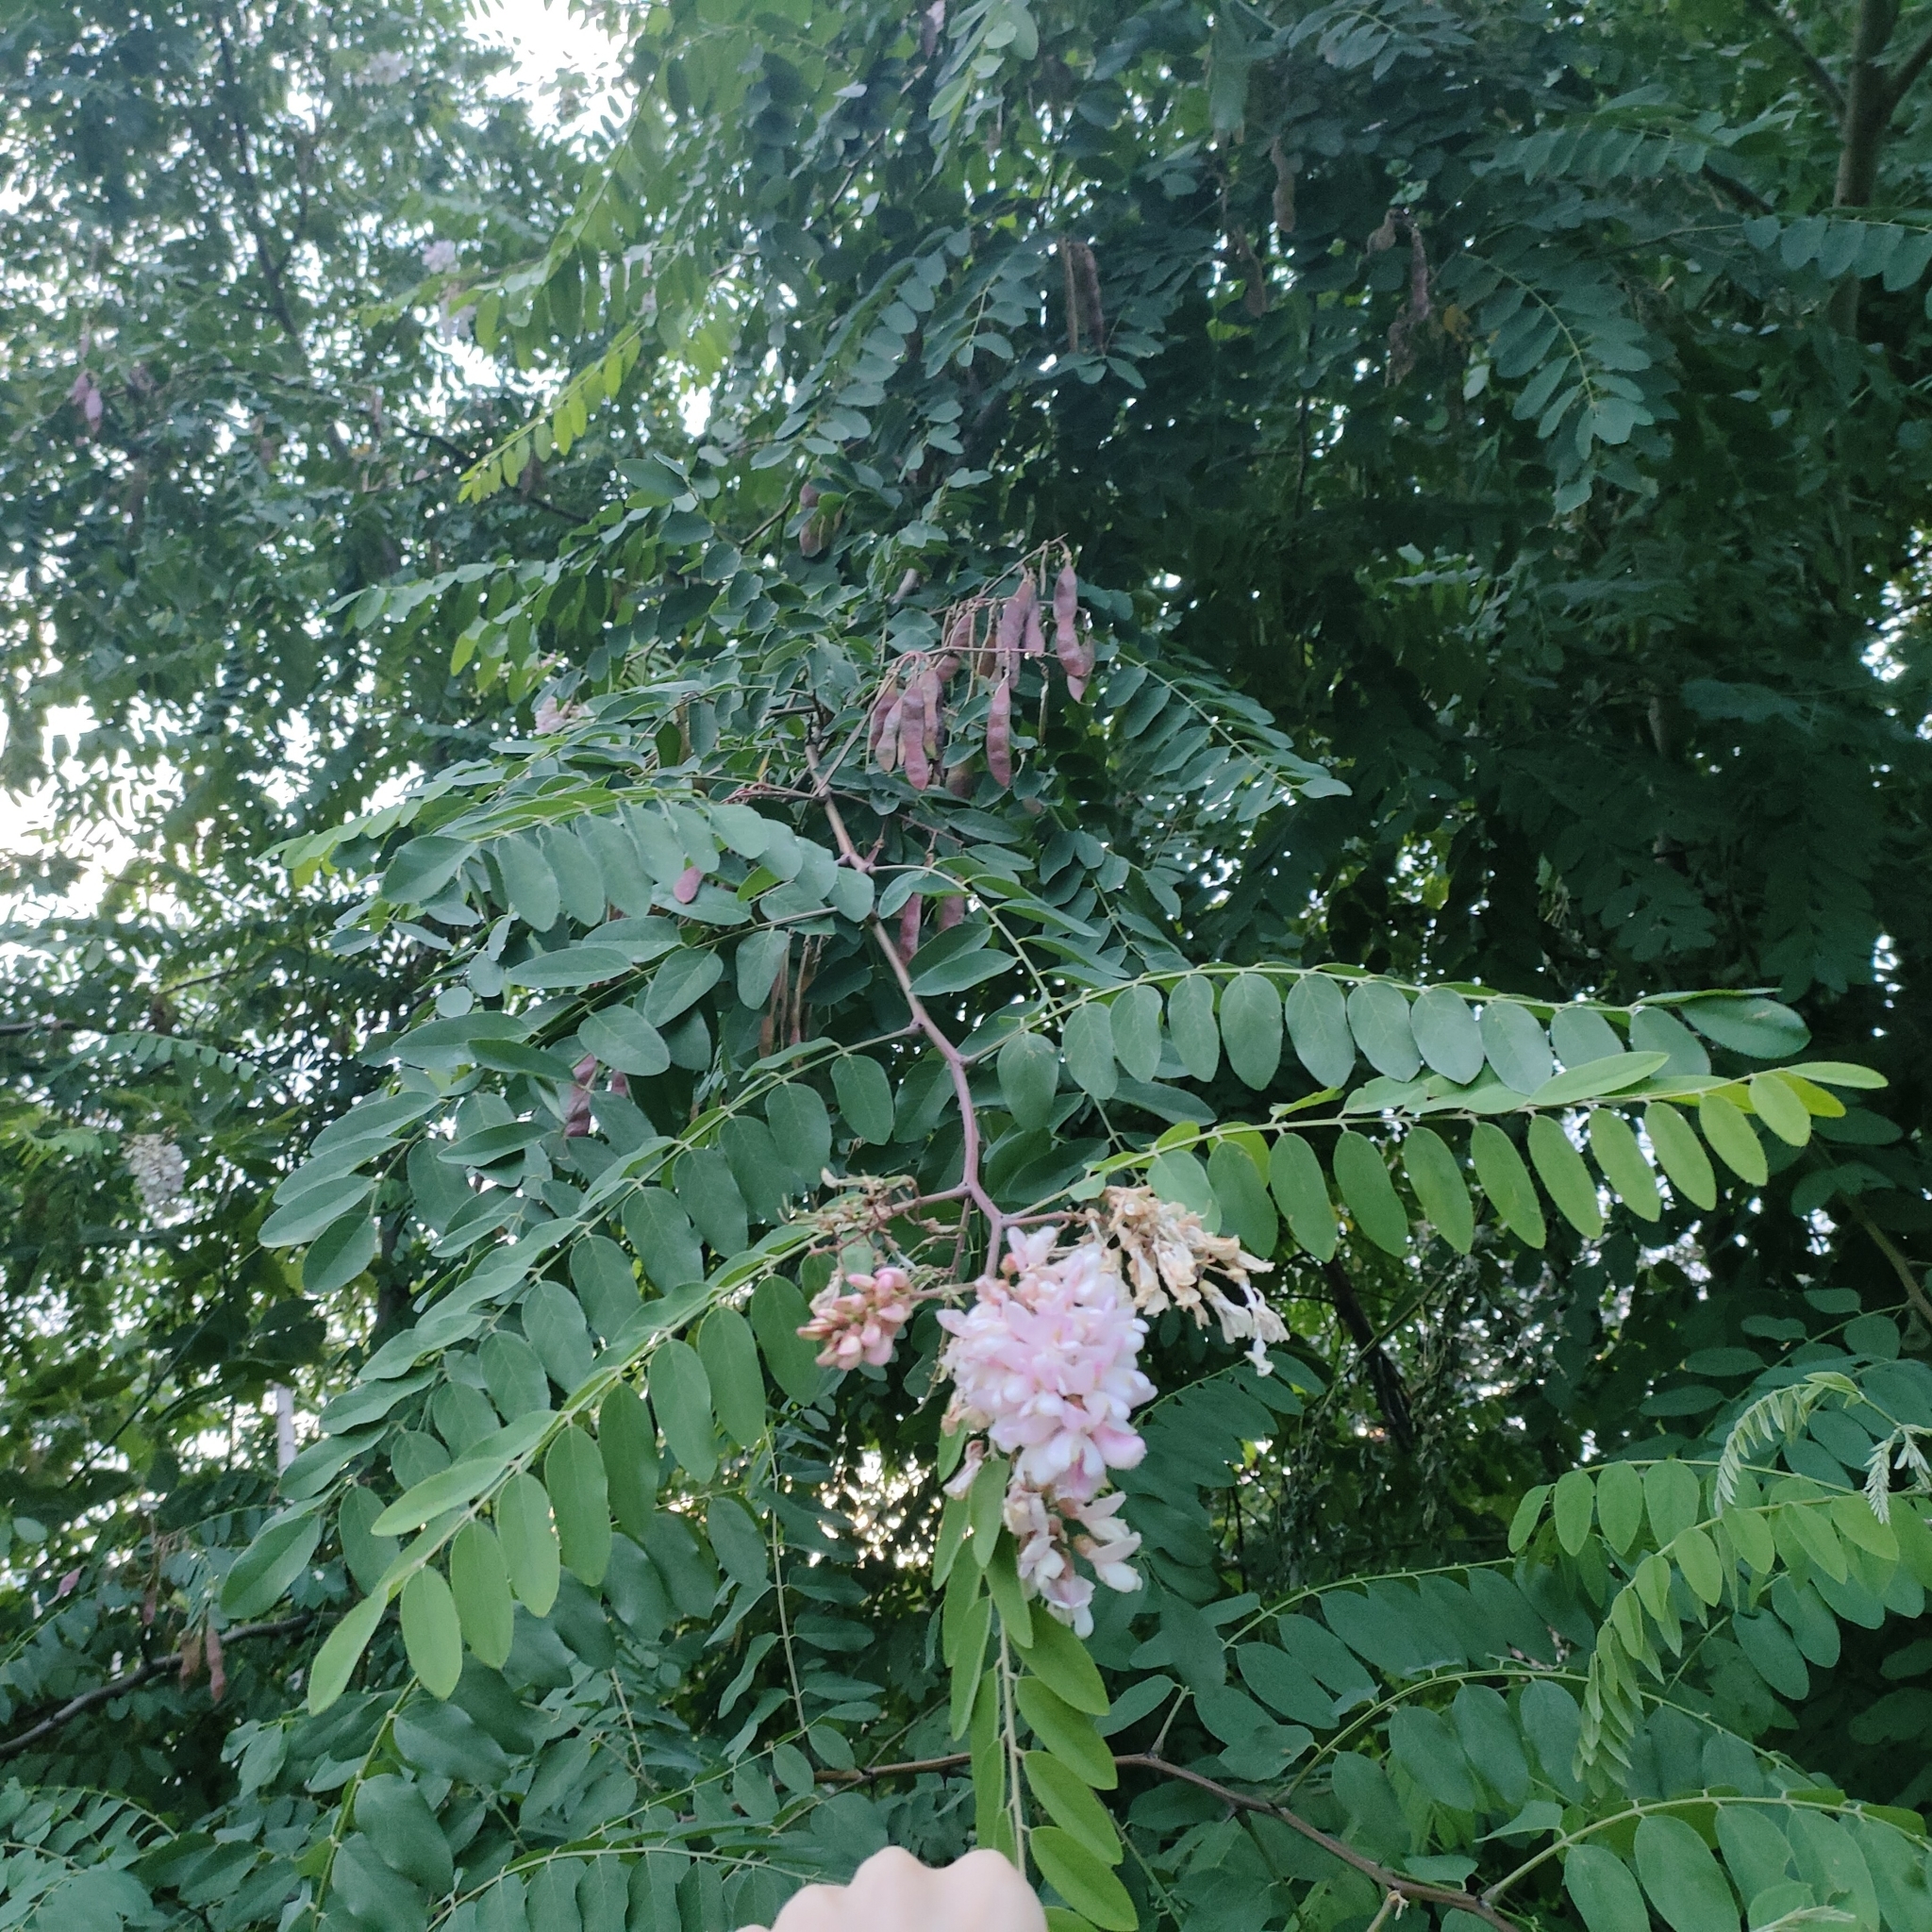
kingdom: Plantae
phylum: Tracheophyta
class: Magnoliopsida
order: Fabales
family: Fabaceae
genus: Robinia
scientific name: Robinia pseudoacacia
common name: Black locust
